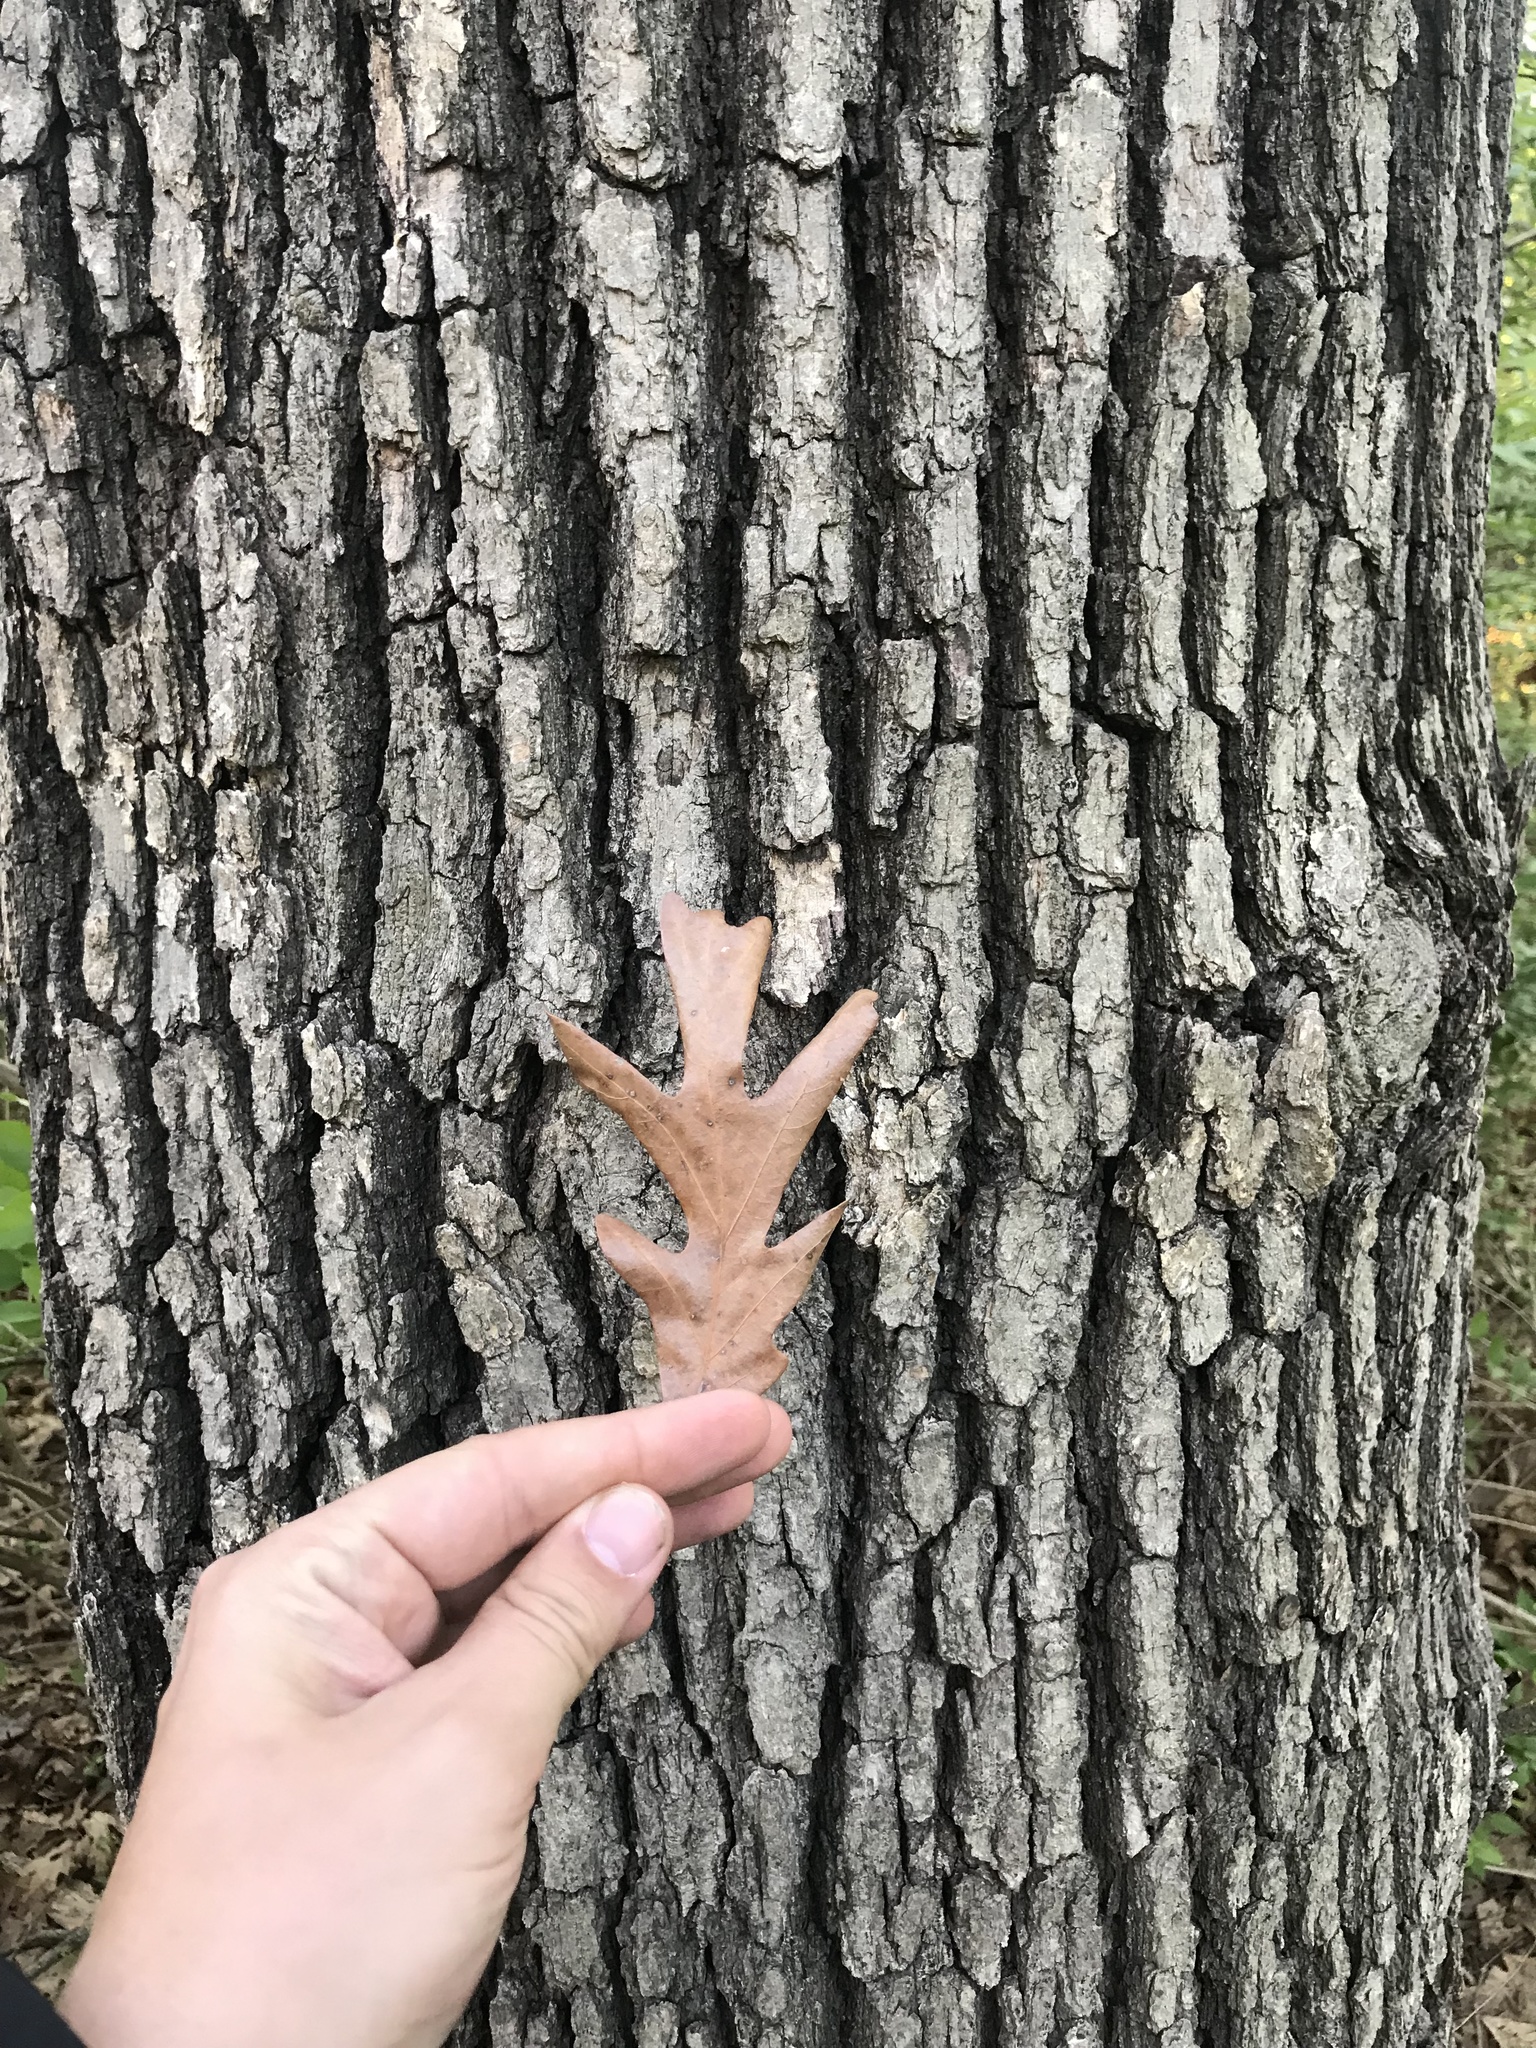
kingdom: Plantae
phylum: Tracheophyta
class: Magnoliopsida
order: Fagales
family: Fagaceae
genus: Quercus
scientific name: Quercus alba
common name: White oak
